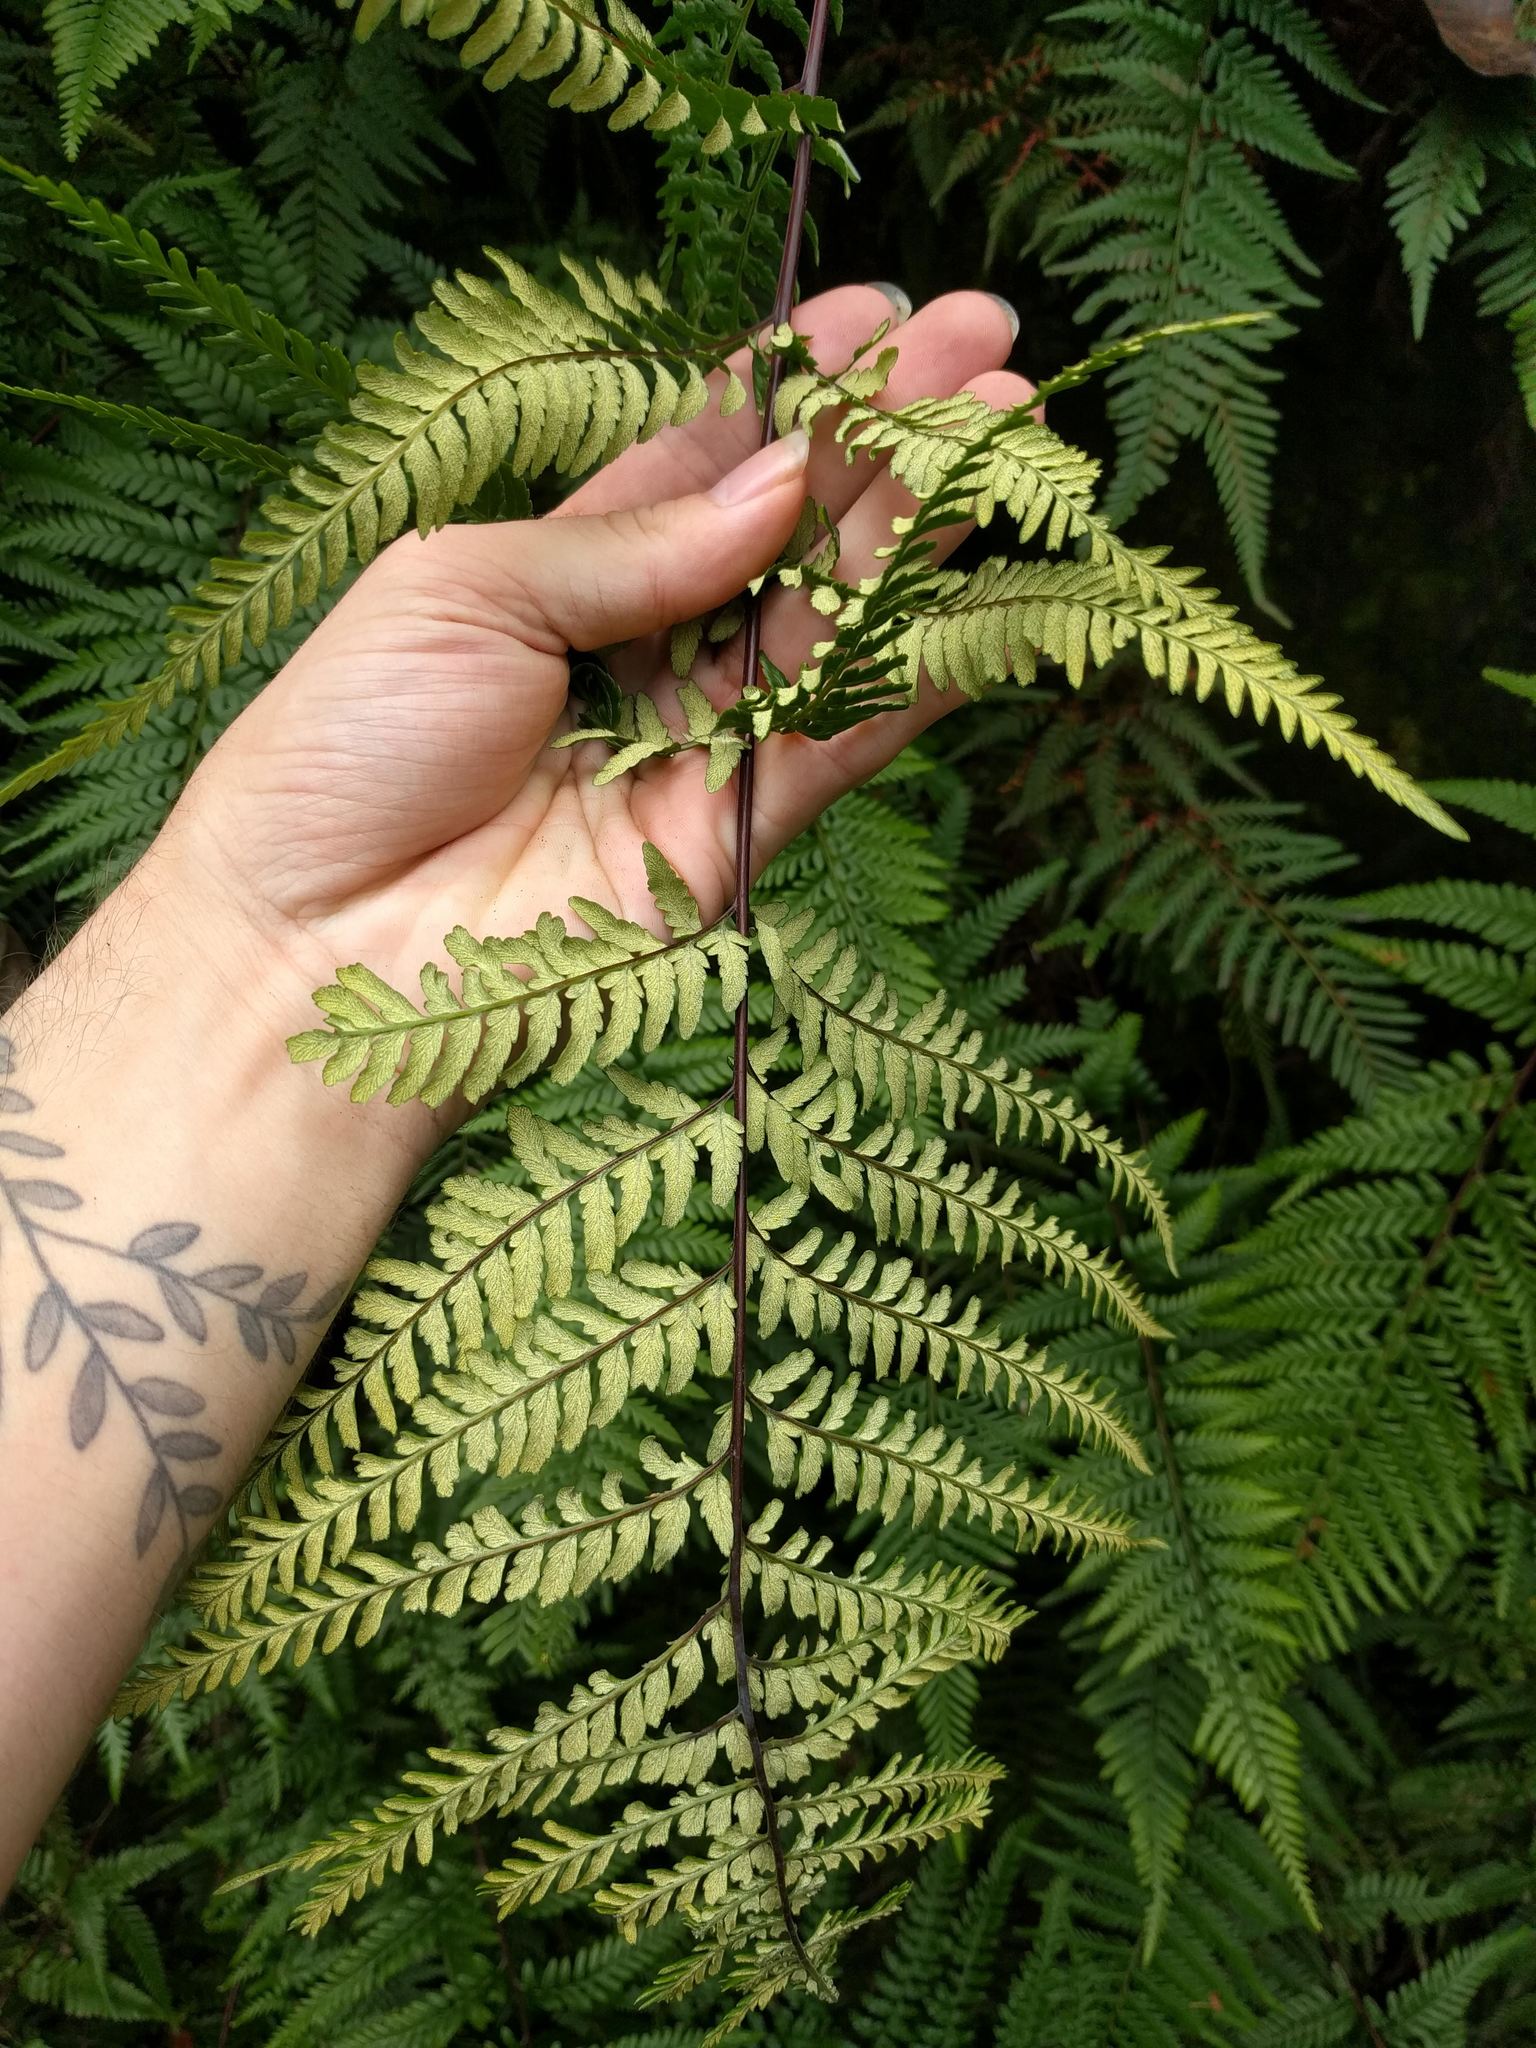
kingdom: Plantae
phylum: Tracheophyta
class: Polypodiopsida
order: Polypodiales
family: Pteridaceae
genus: Pityrogramma
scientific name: Pityrogramma austroamericana
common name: Leatherleaf goldback fern
